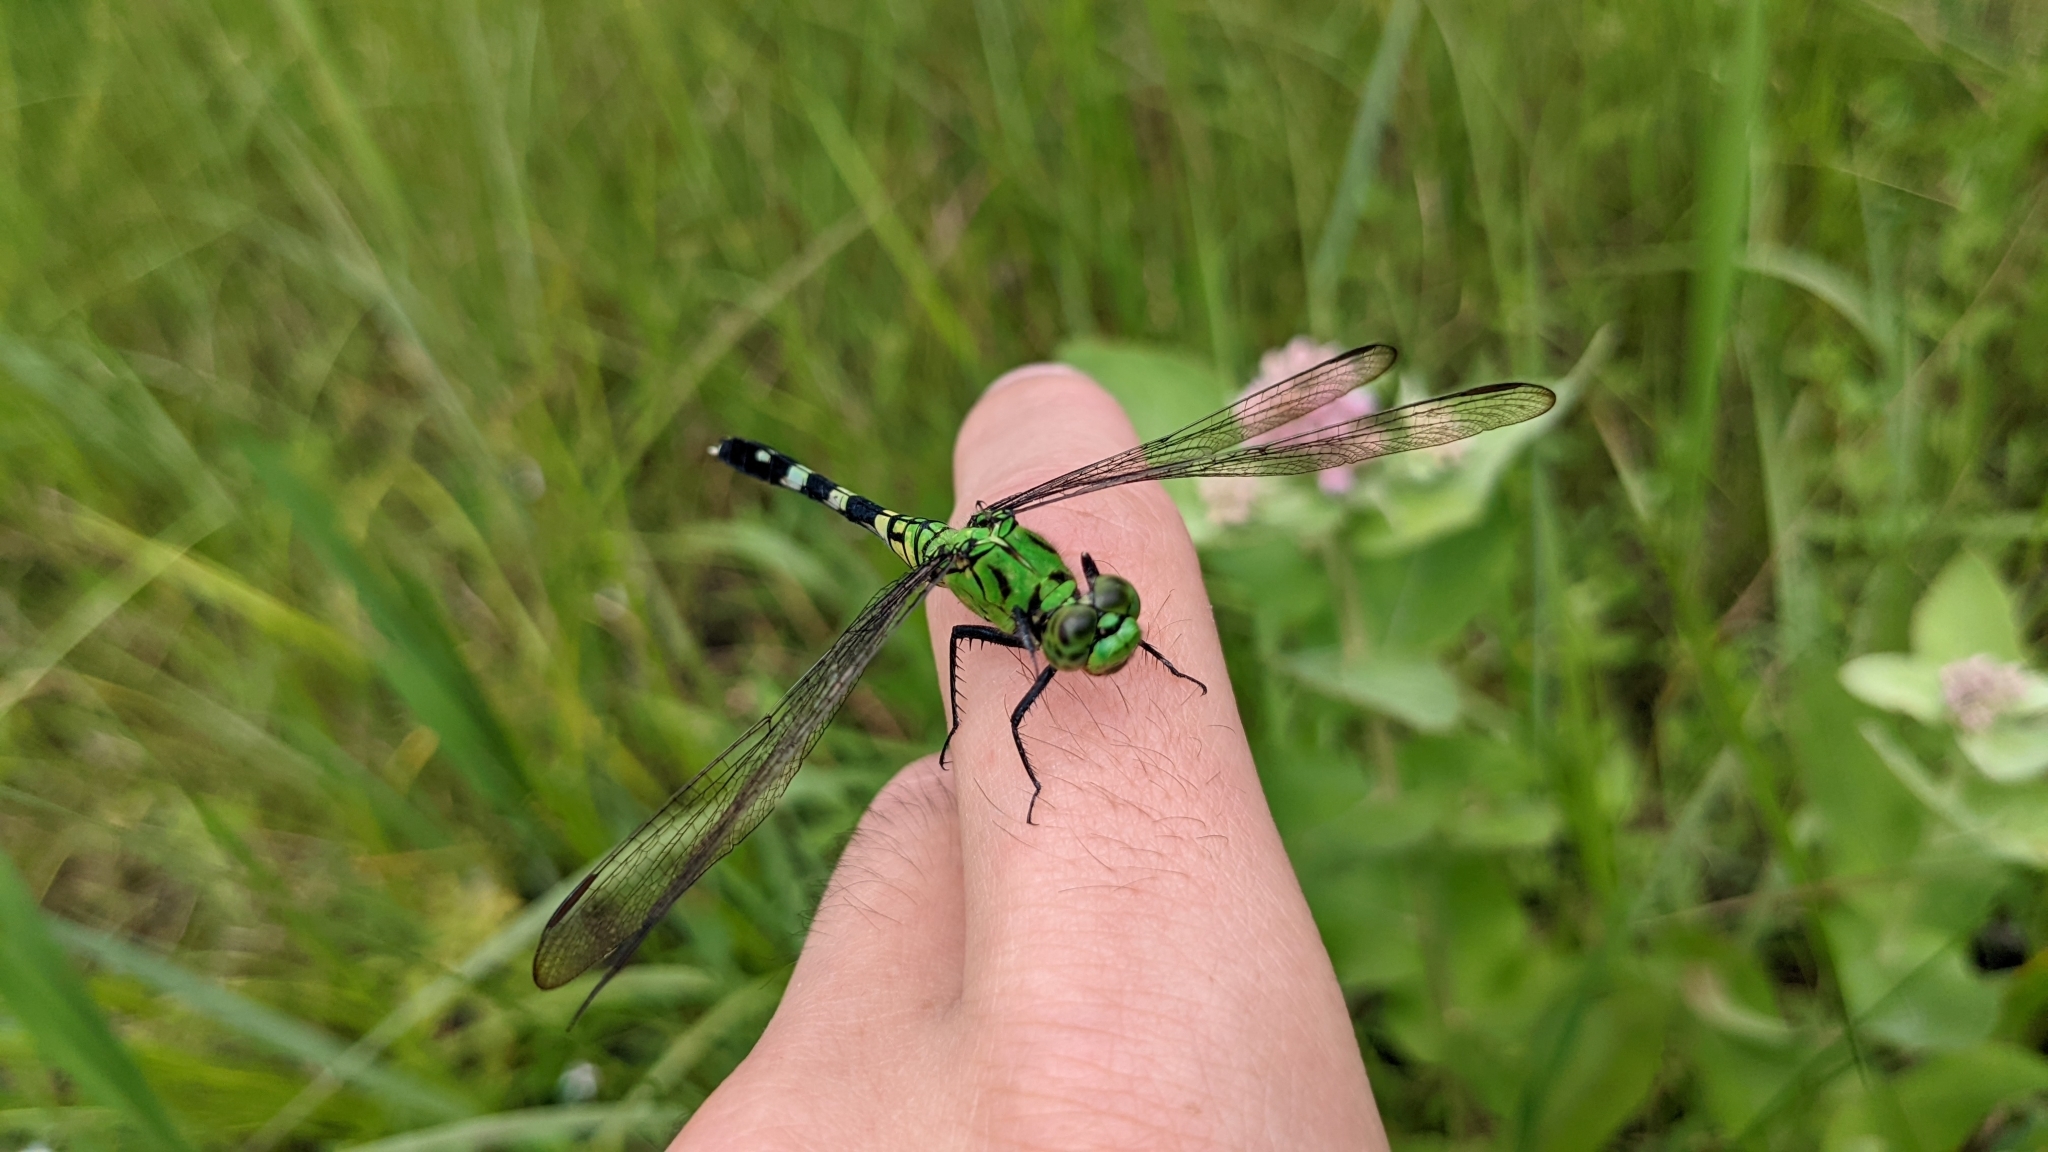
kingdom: Animalia
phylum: Arthropoda
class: Insecta
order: Odonata
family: Libellulidae
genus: Erythemis
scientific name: Erythemis simplicicollis
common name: Eastern pondhawk
